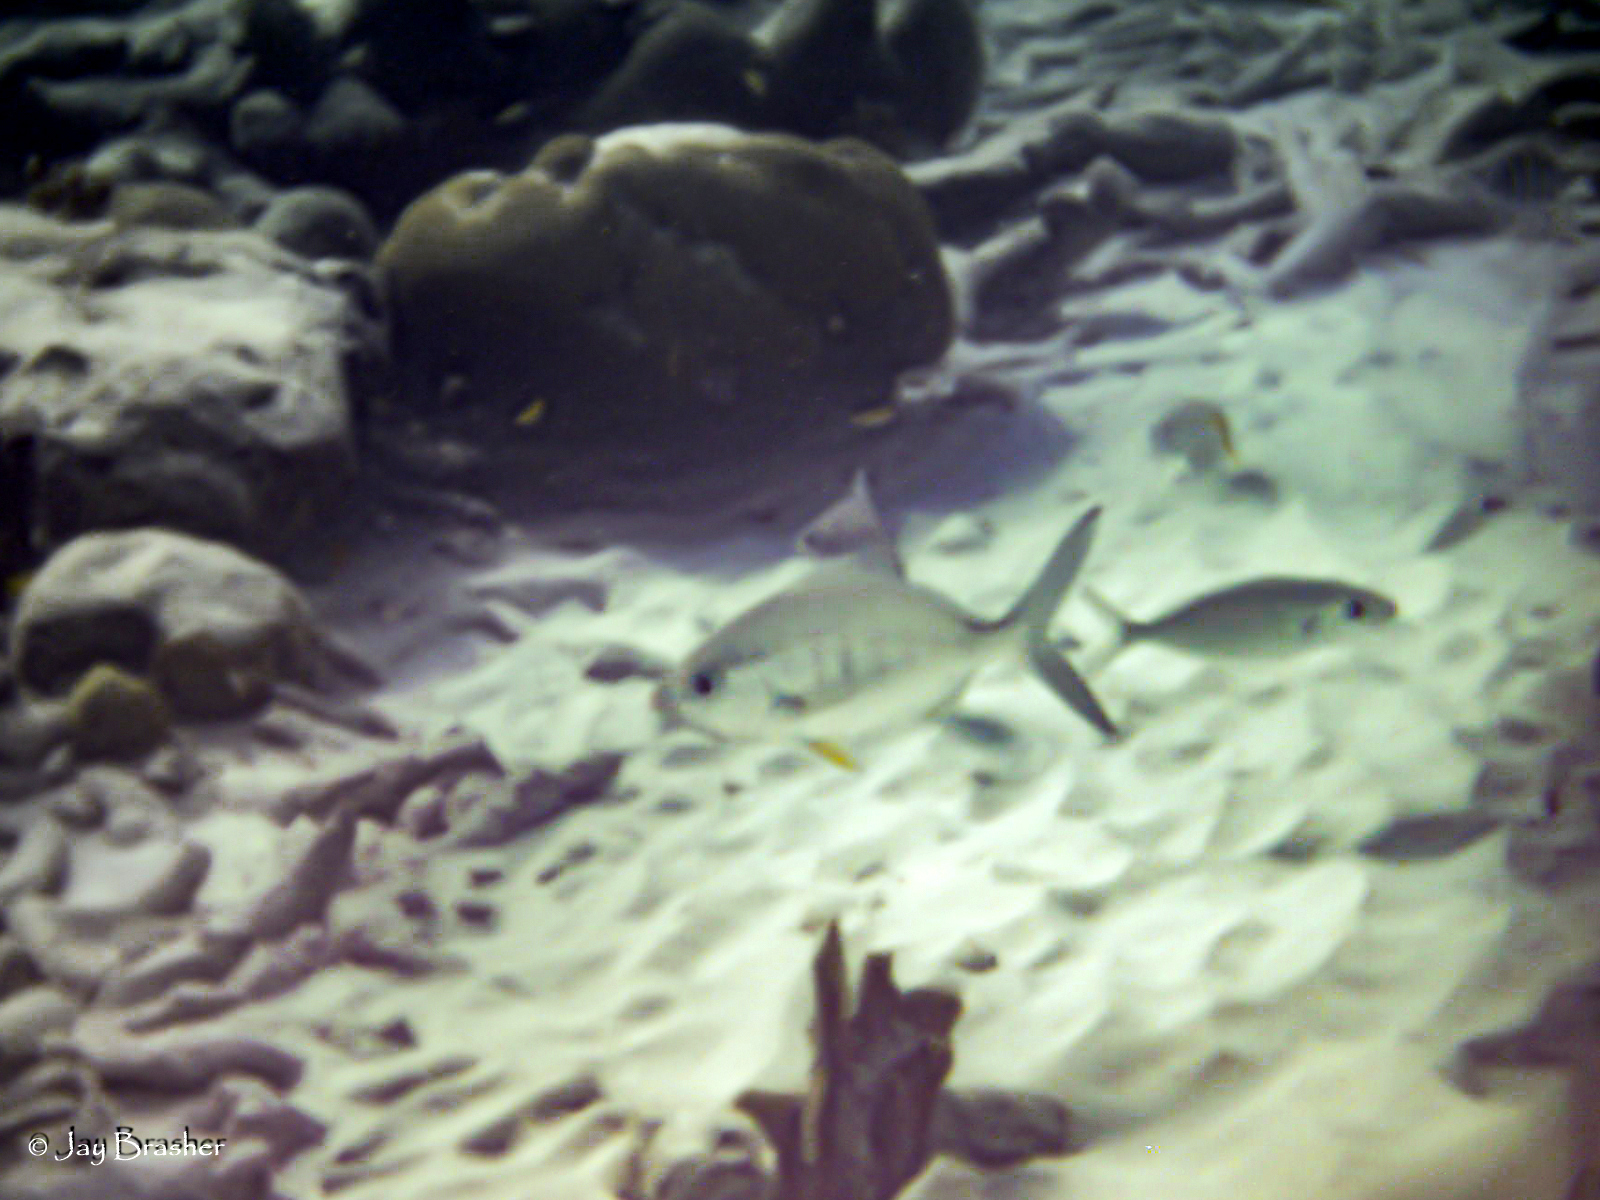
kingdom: Animalia
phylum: Chordata
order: Perciformes
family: Gerreidae
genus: Gerres
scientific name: Gerres cinereus
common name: Hedow
